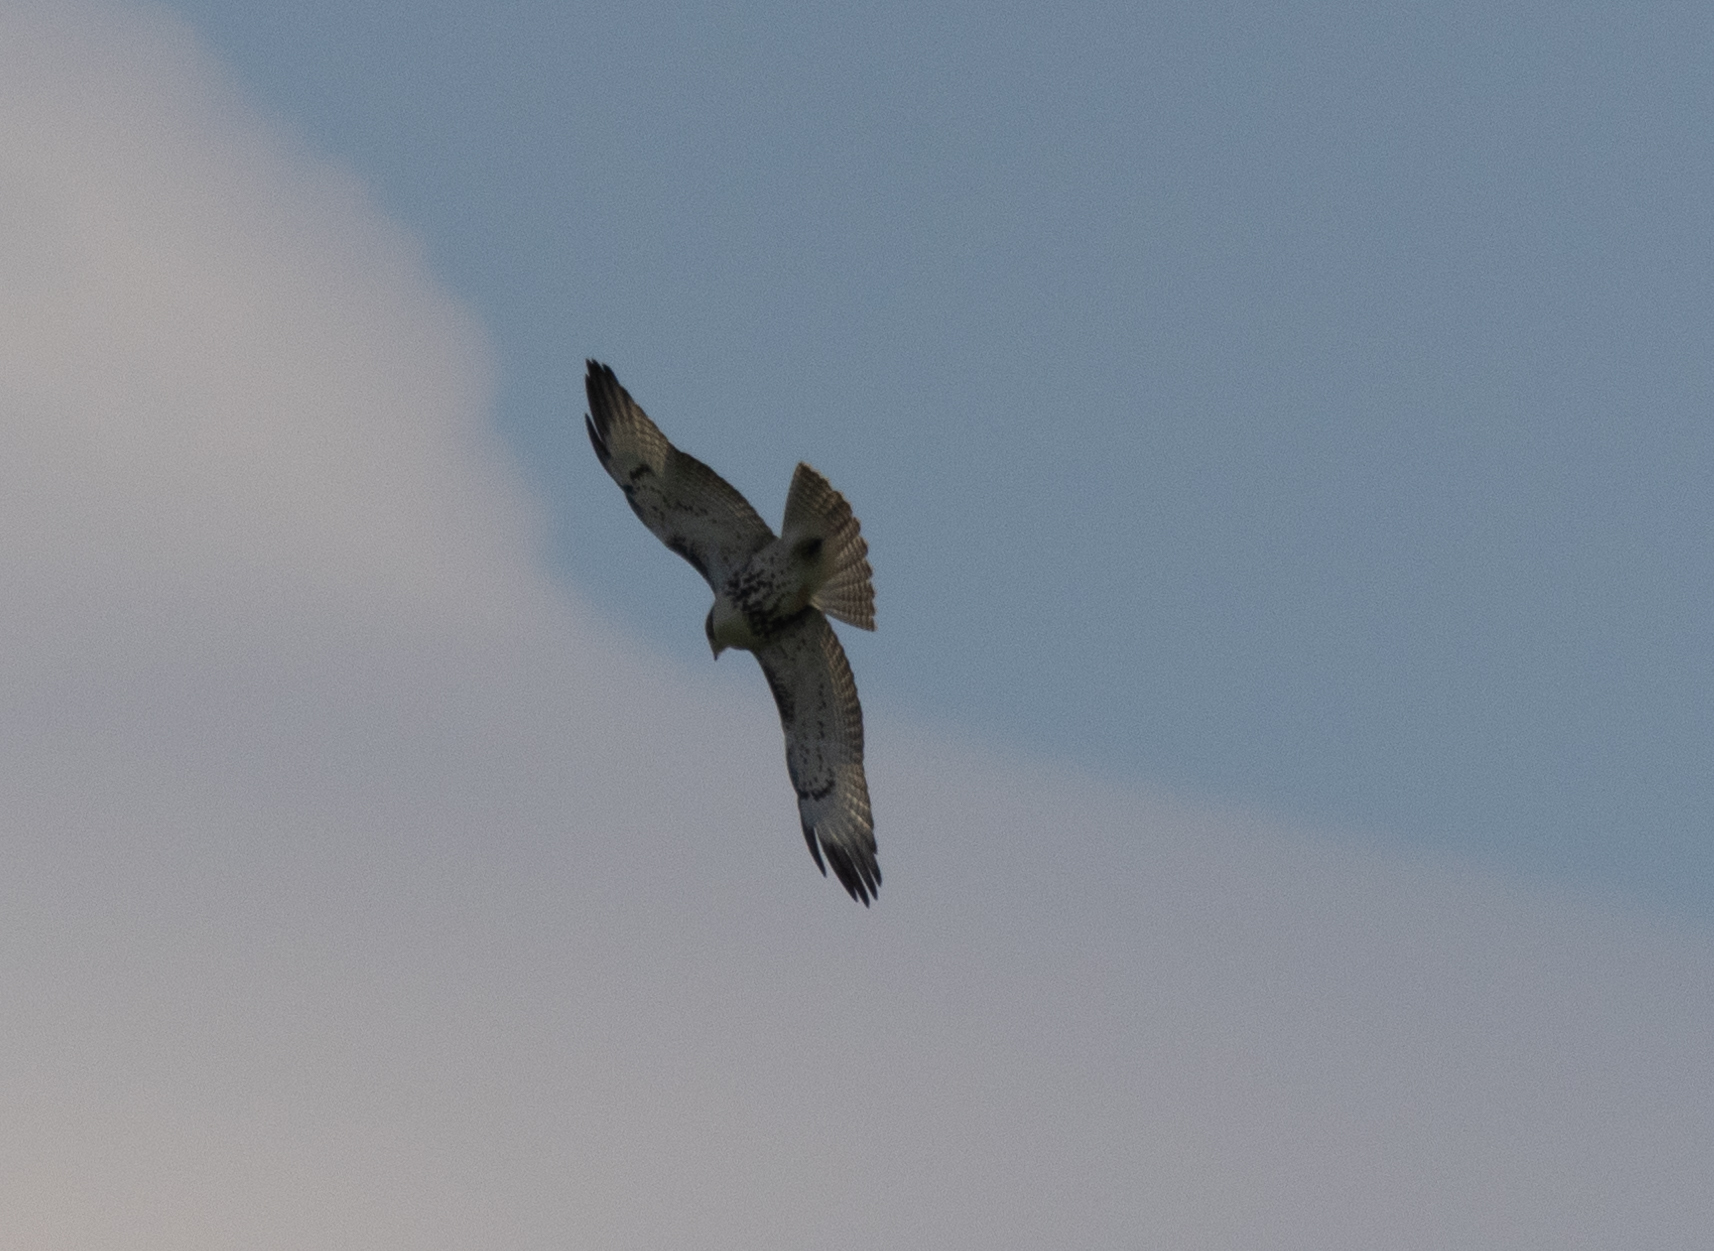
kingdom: Animalia
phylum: Chordata
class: Aves
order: Accipitriformes
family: Accipitridae
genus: Buteo
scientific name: Buteo jamaicensis
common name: Red-tailed hawk
